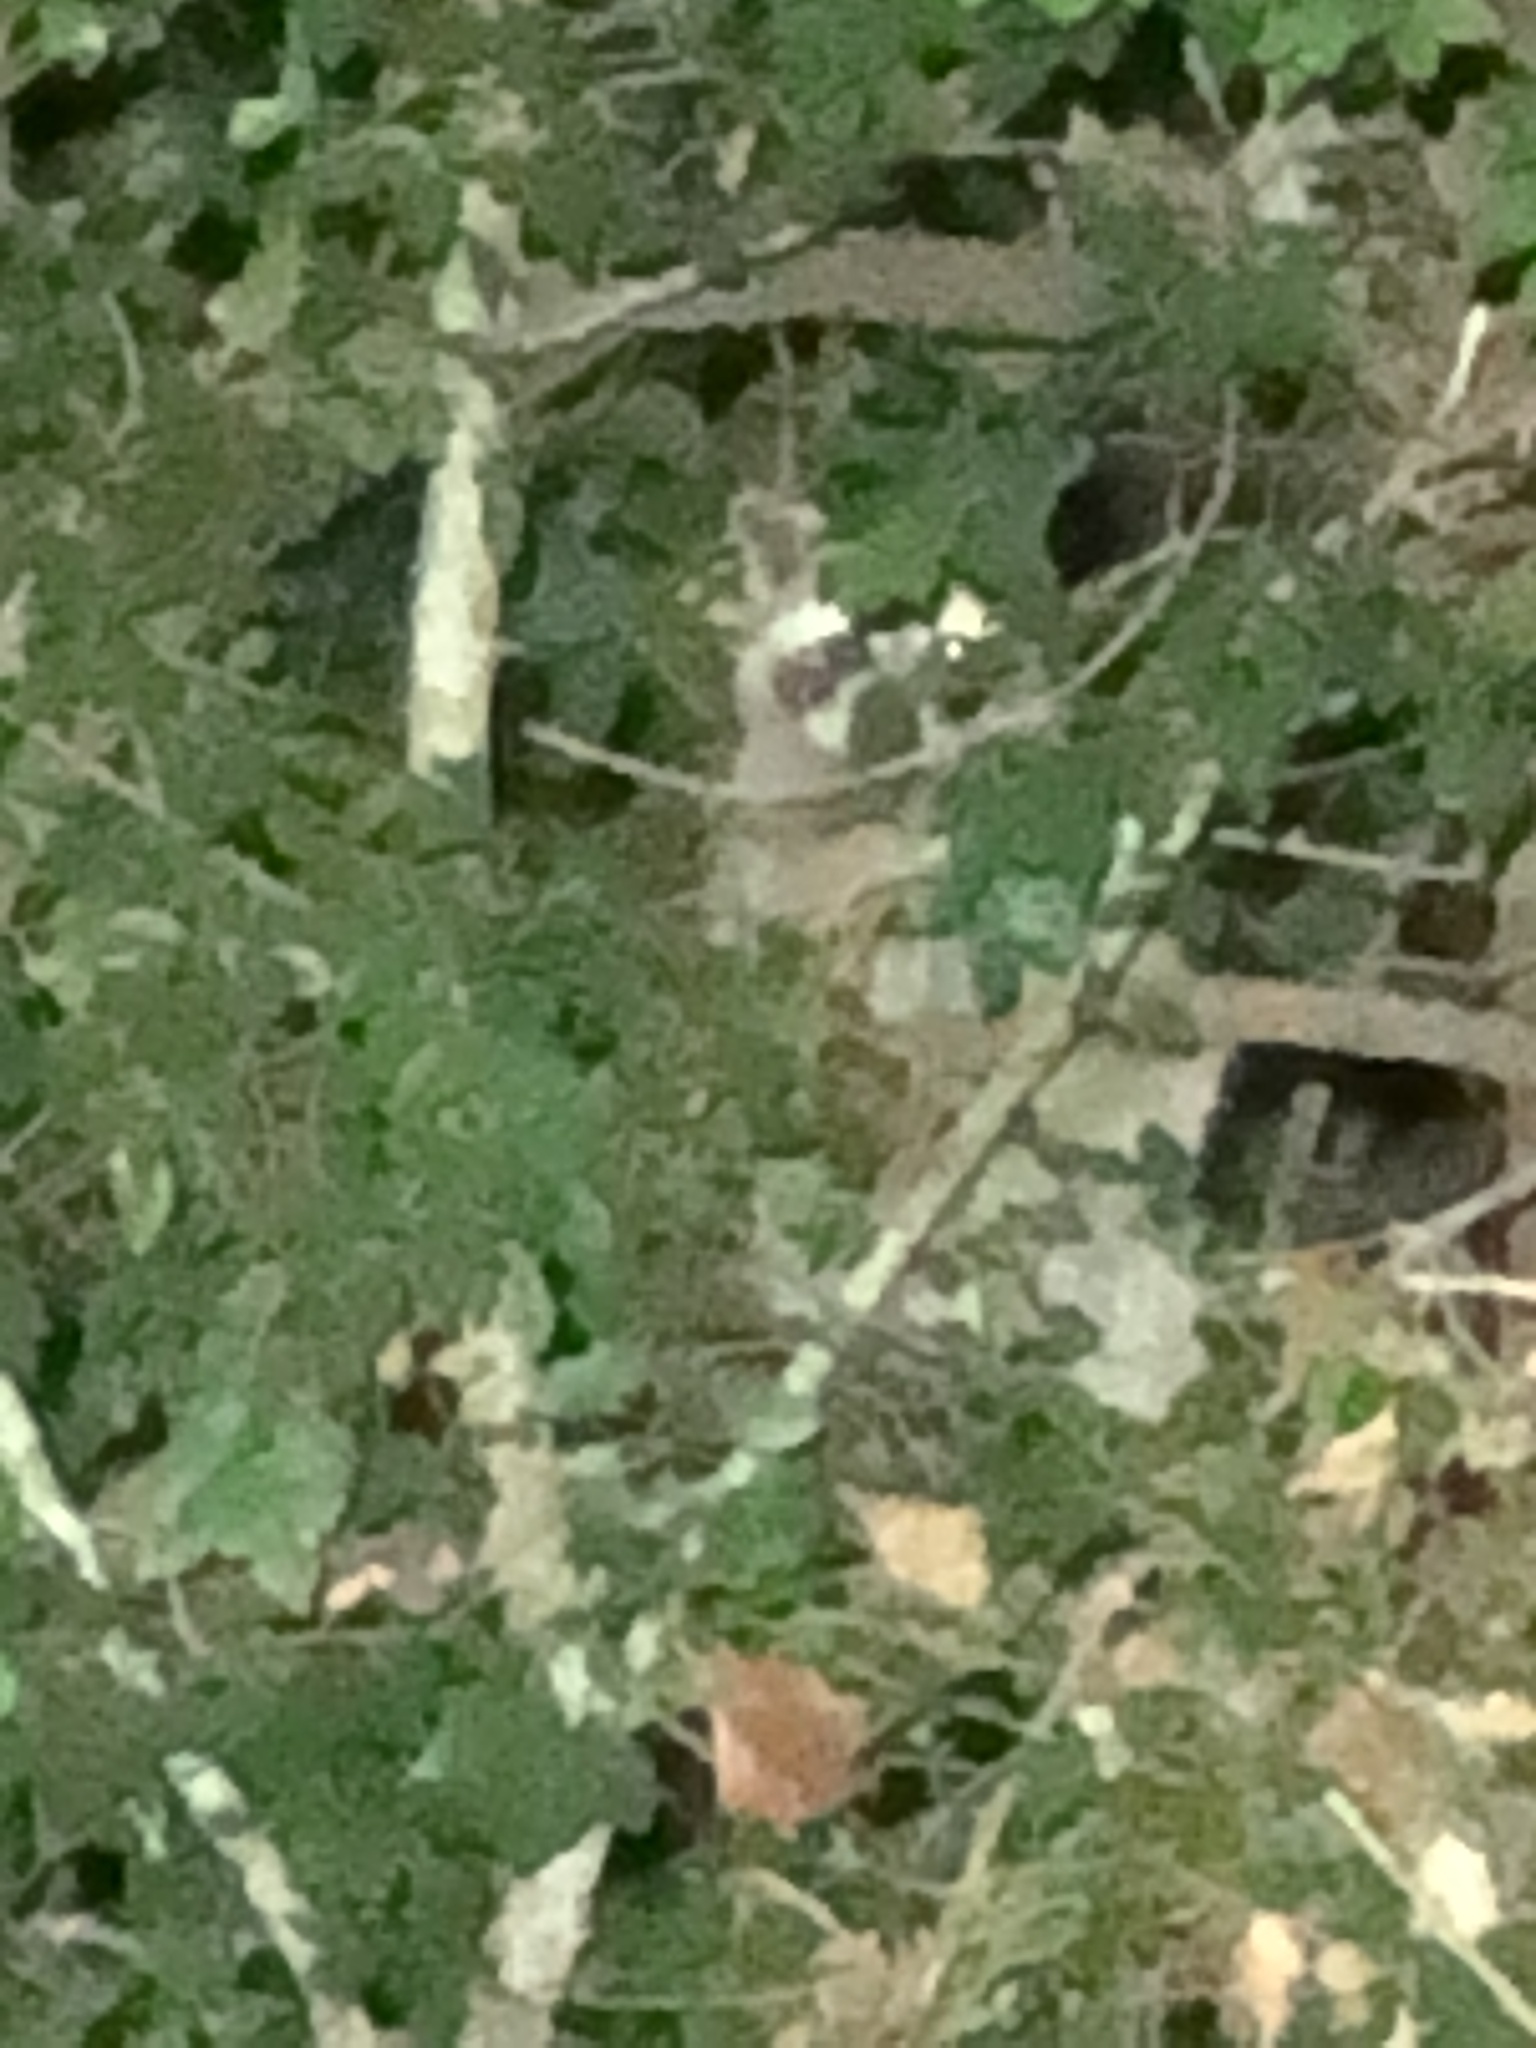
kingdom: Animalia
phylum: Chordata
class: Mammalia
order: Carnivora
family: Procyonidae
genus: Procyon
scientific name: Procyon lotor
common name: Raccoon
